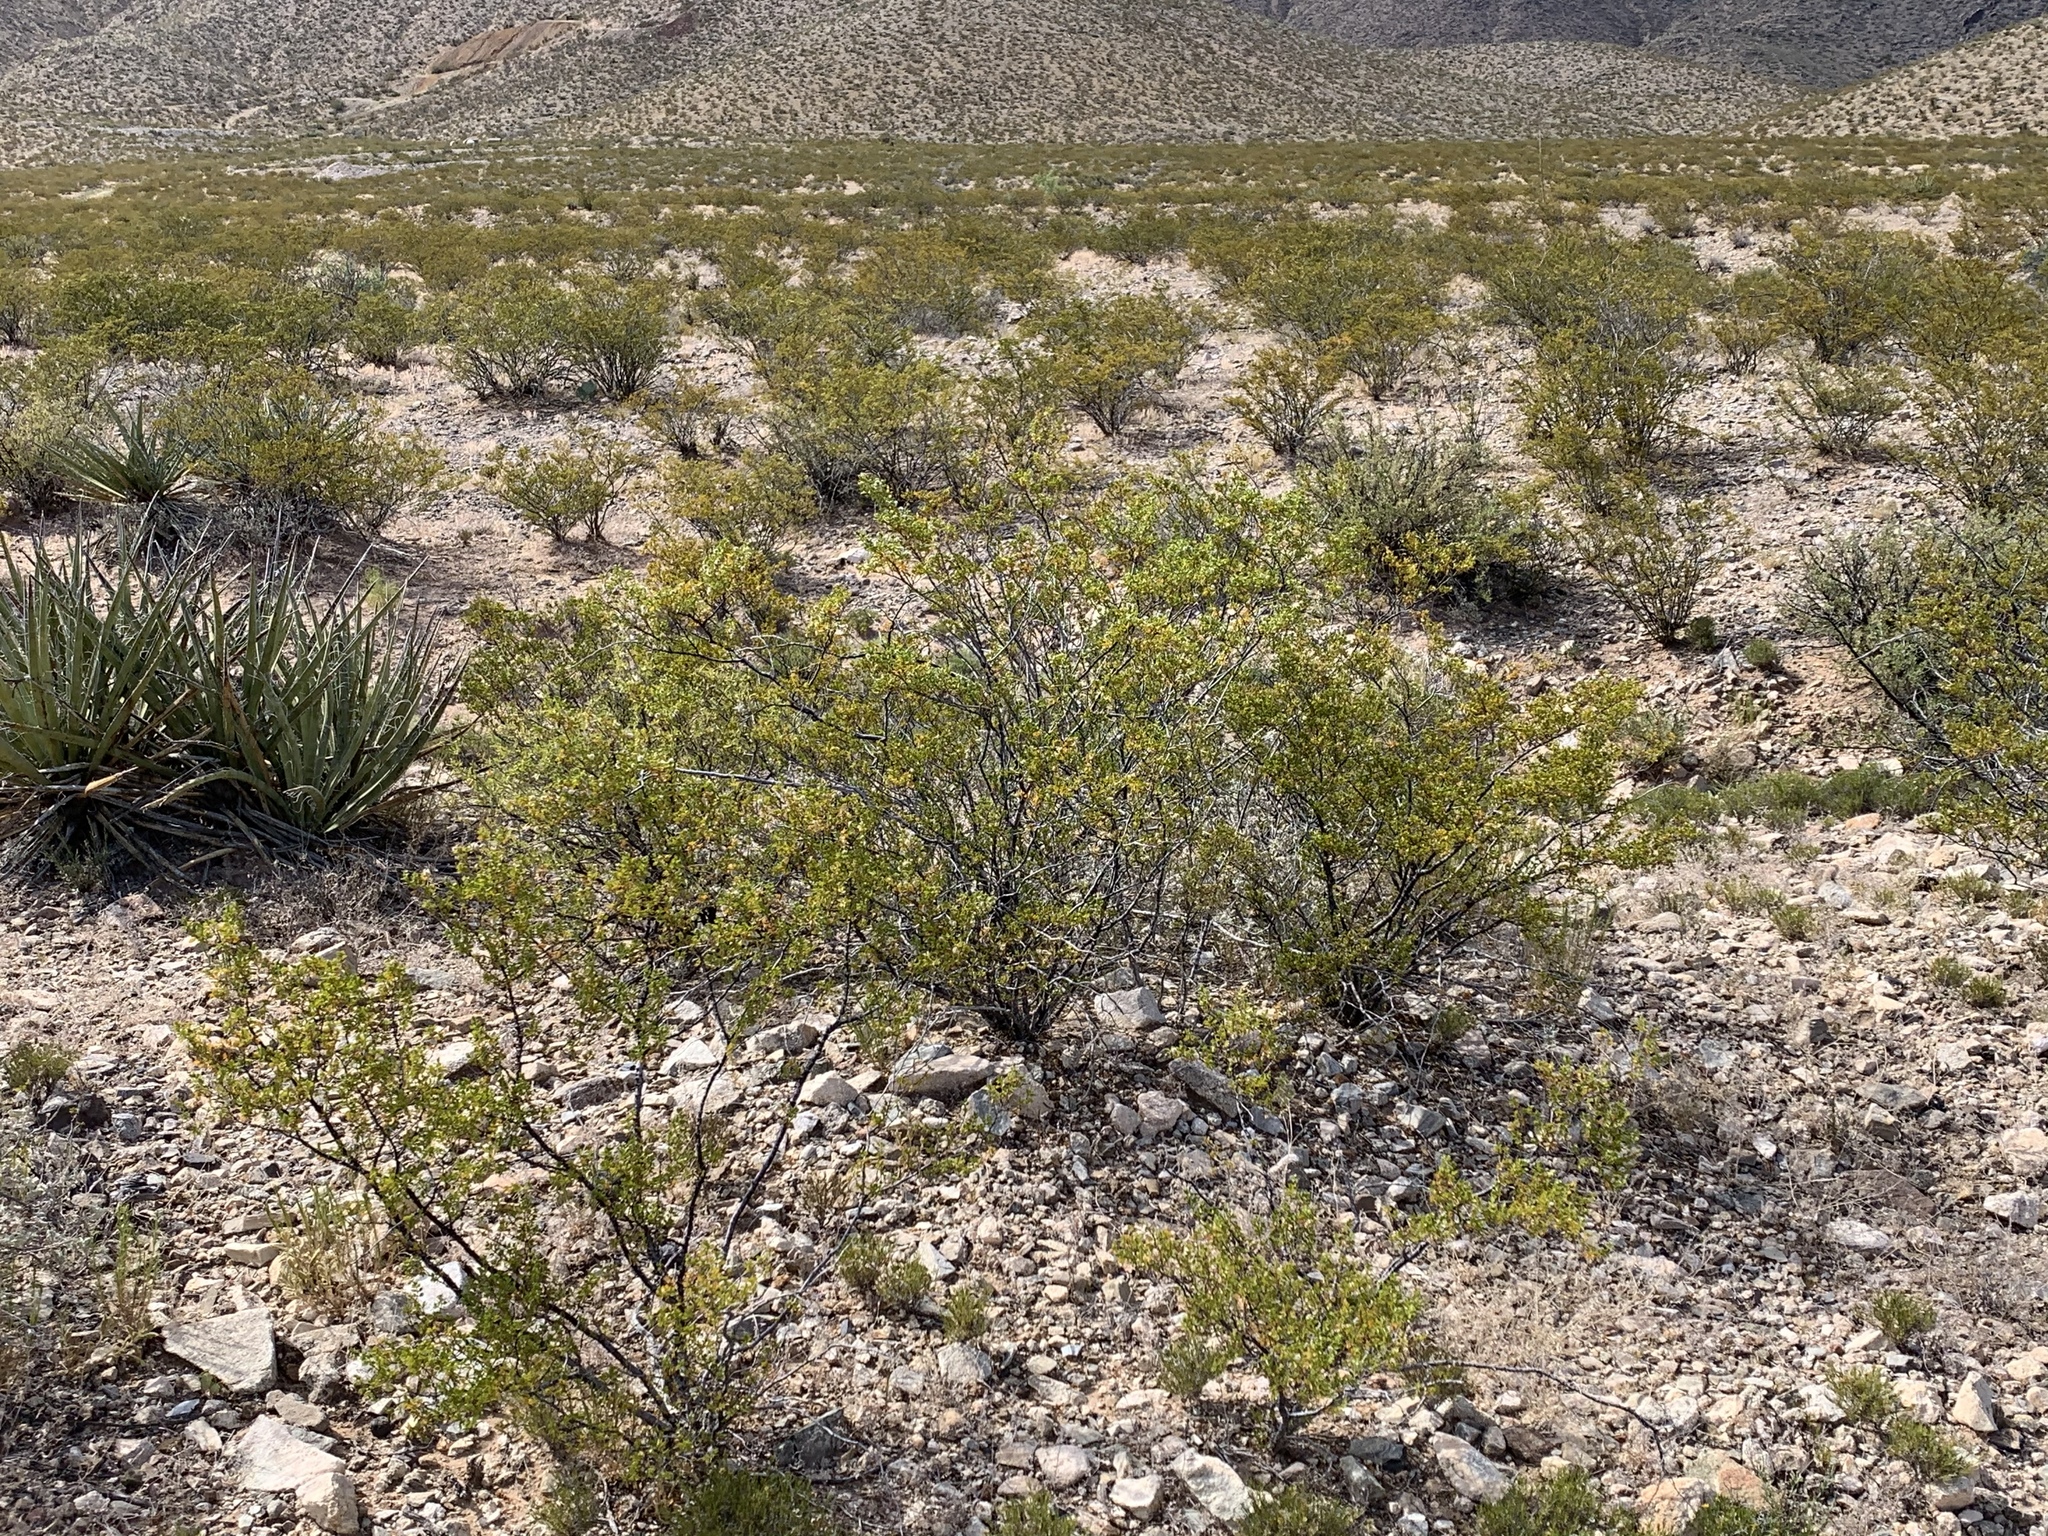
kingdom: Plantae
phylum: Tracheophyta
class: Magnoliopsida
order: Zygophyllales
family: Zygophyllaceae
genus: Larrea
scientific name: Larrea tridentata
